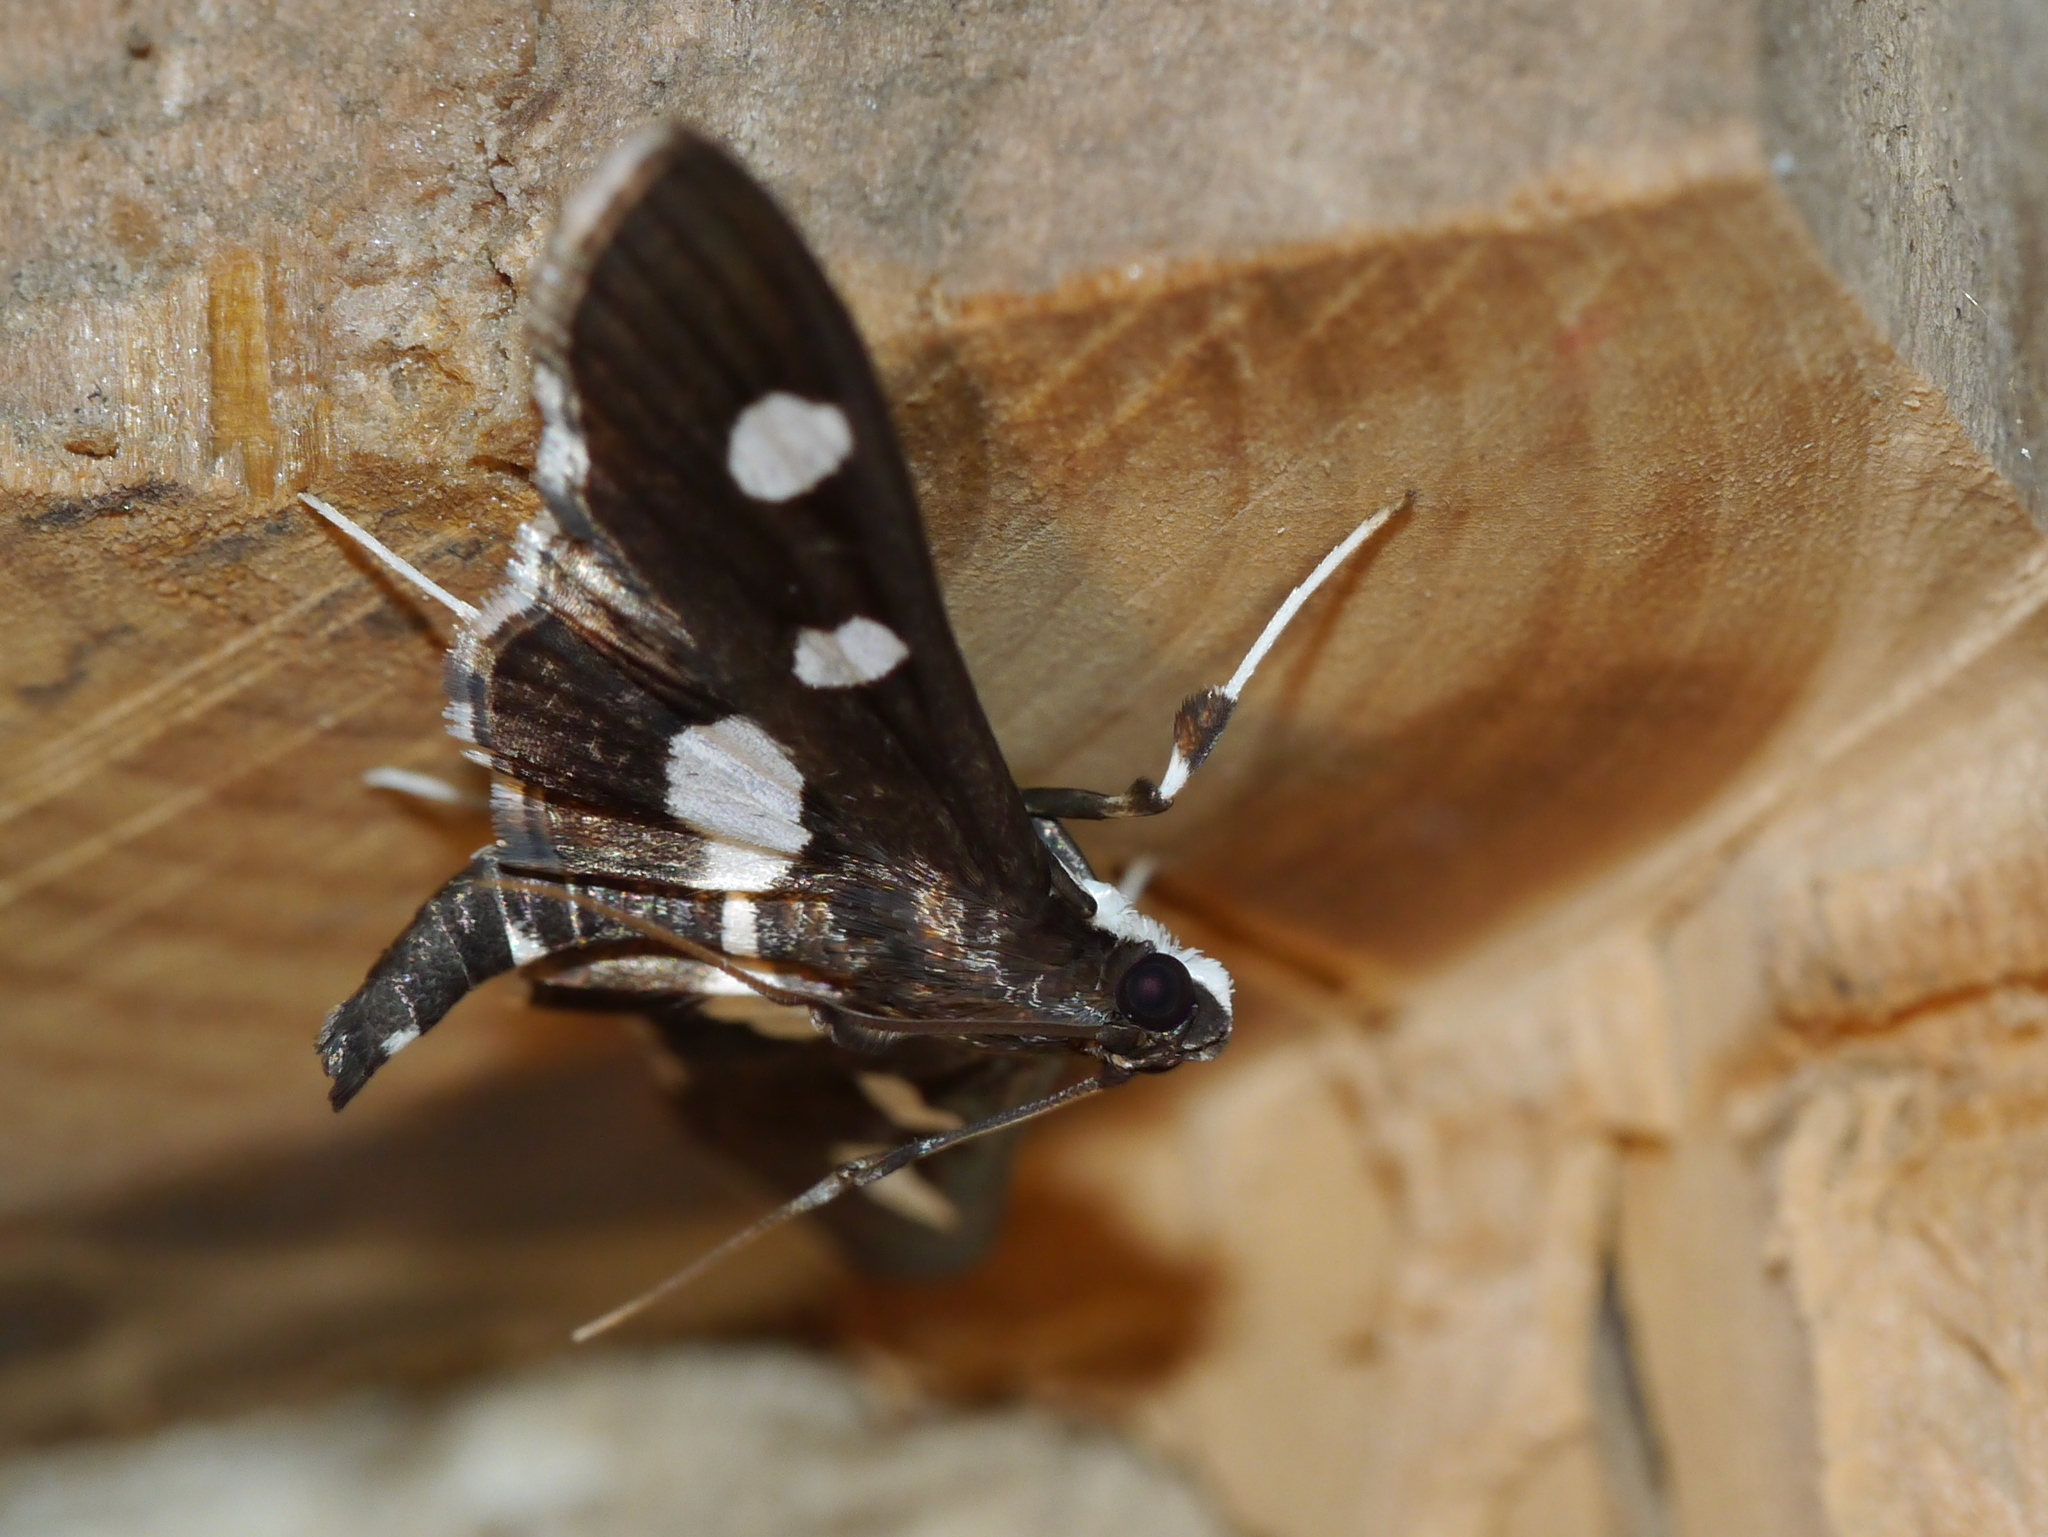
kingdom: Animalia
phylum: Arthropoda
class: Insecta
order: Lepidoptera
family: Crambidae
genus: Desmia
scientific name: Desmia
